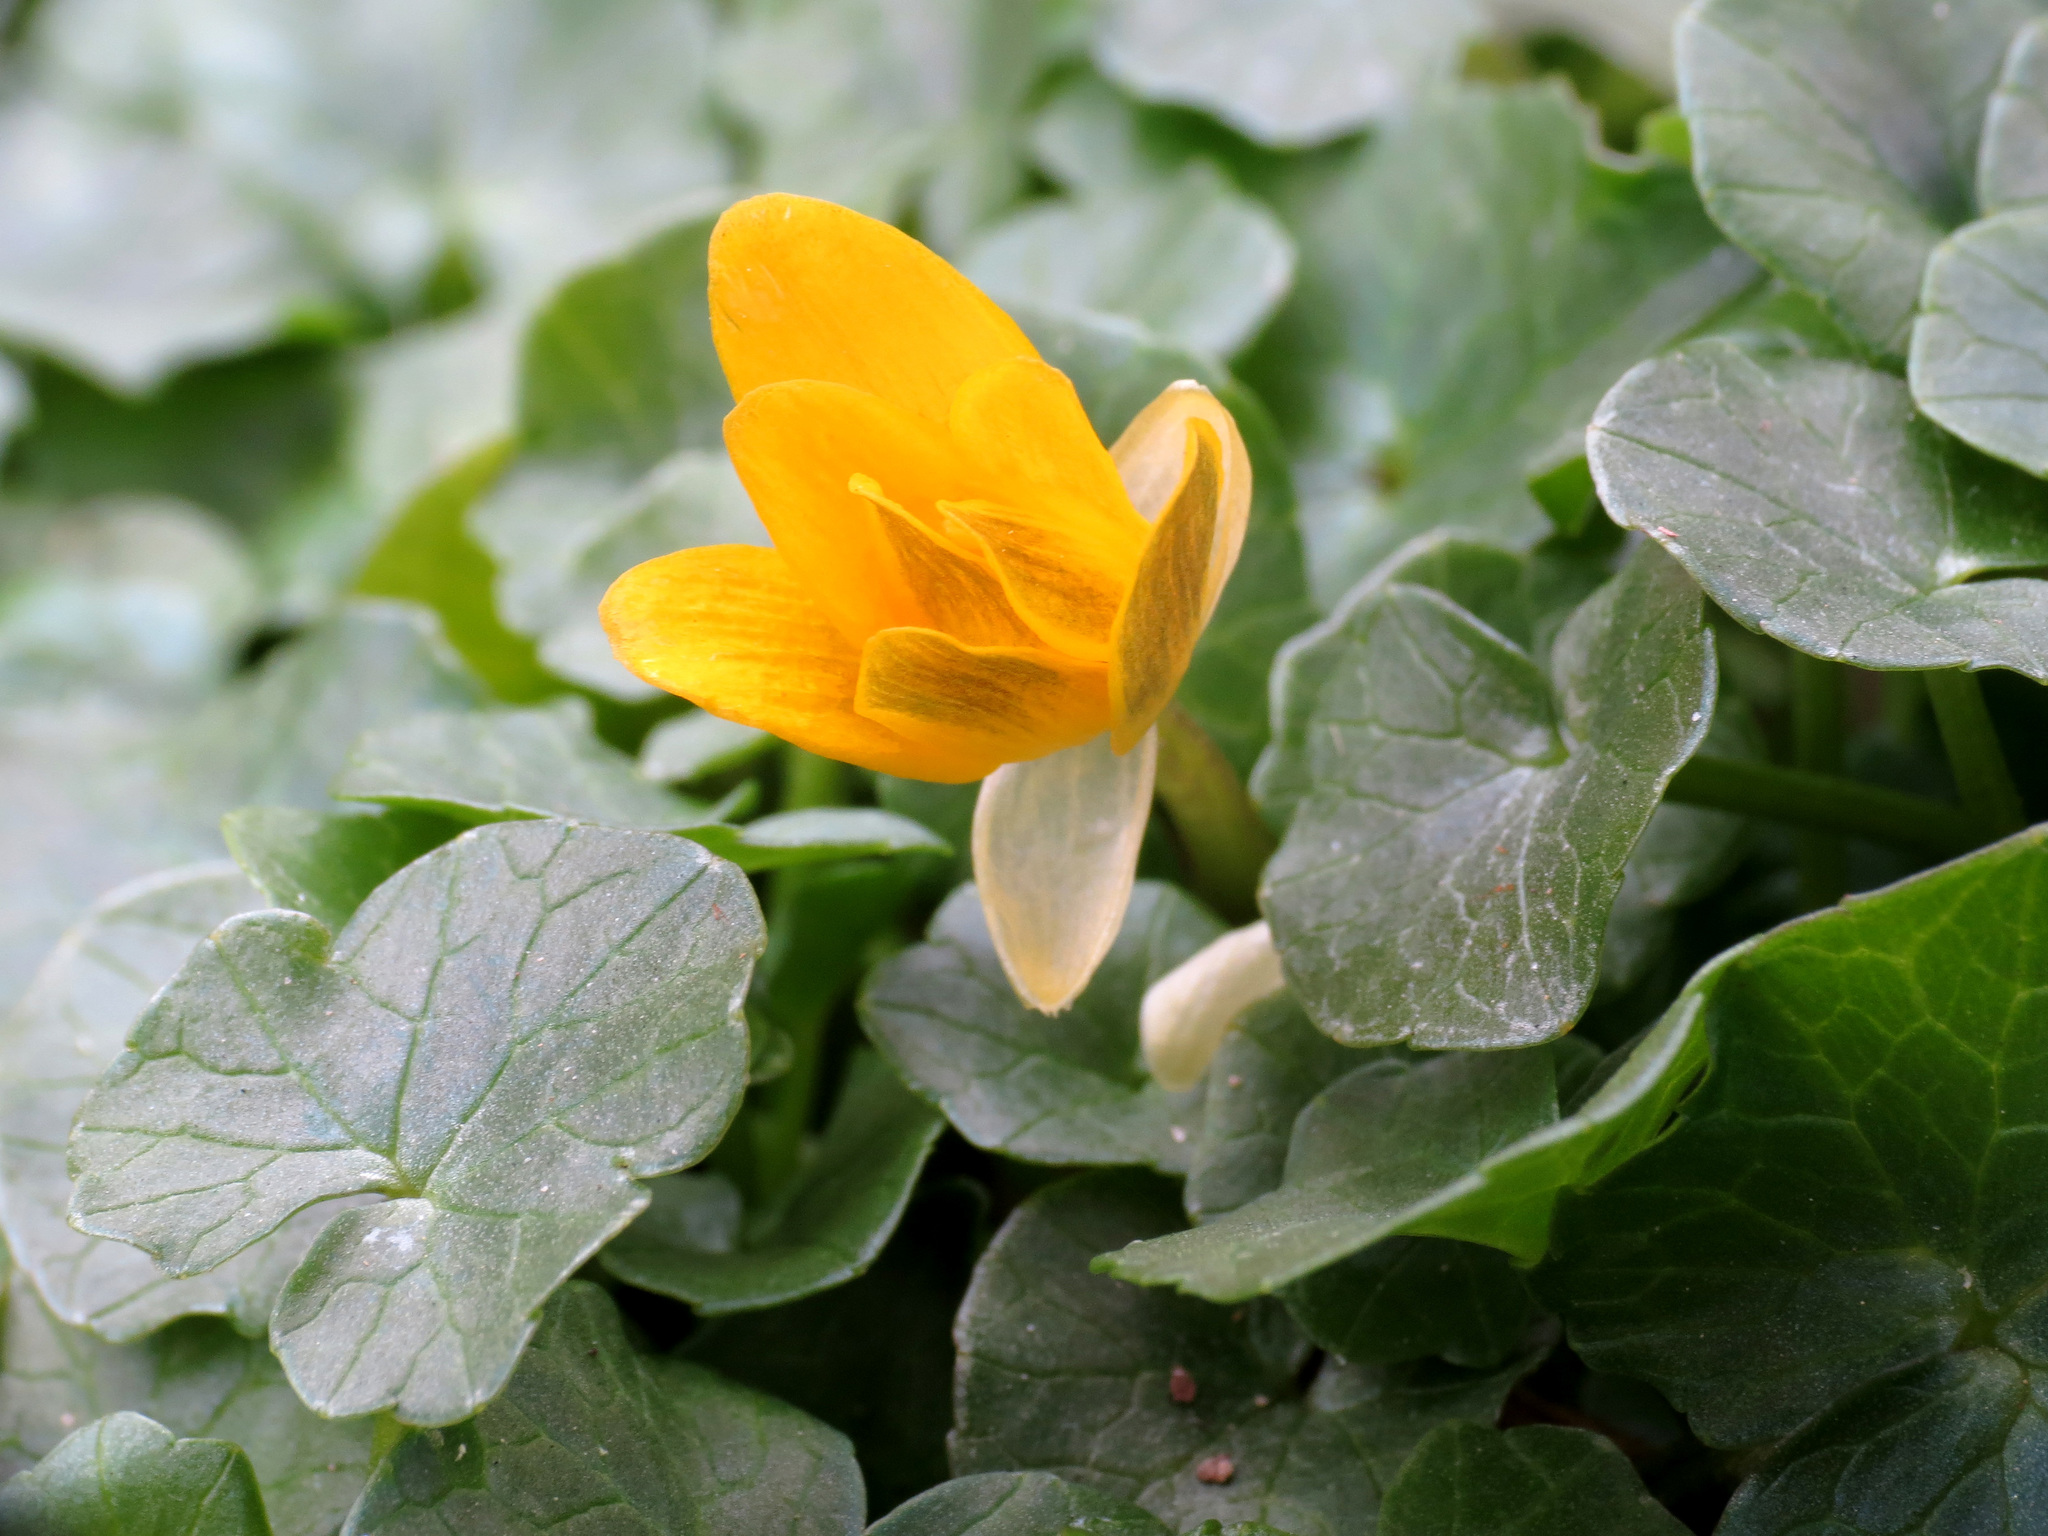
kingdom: Plantae
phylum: Tracheophyta
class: Magnoliopsida
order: Ranunculales
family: Ranunculaceae
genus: Ficaria
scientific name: Ficaria verna
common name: Lesser celandine
